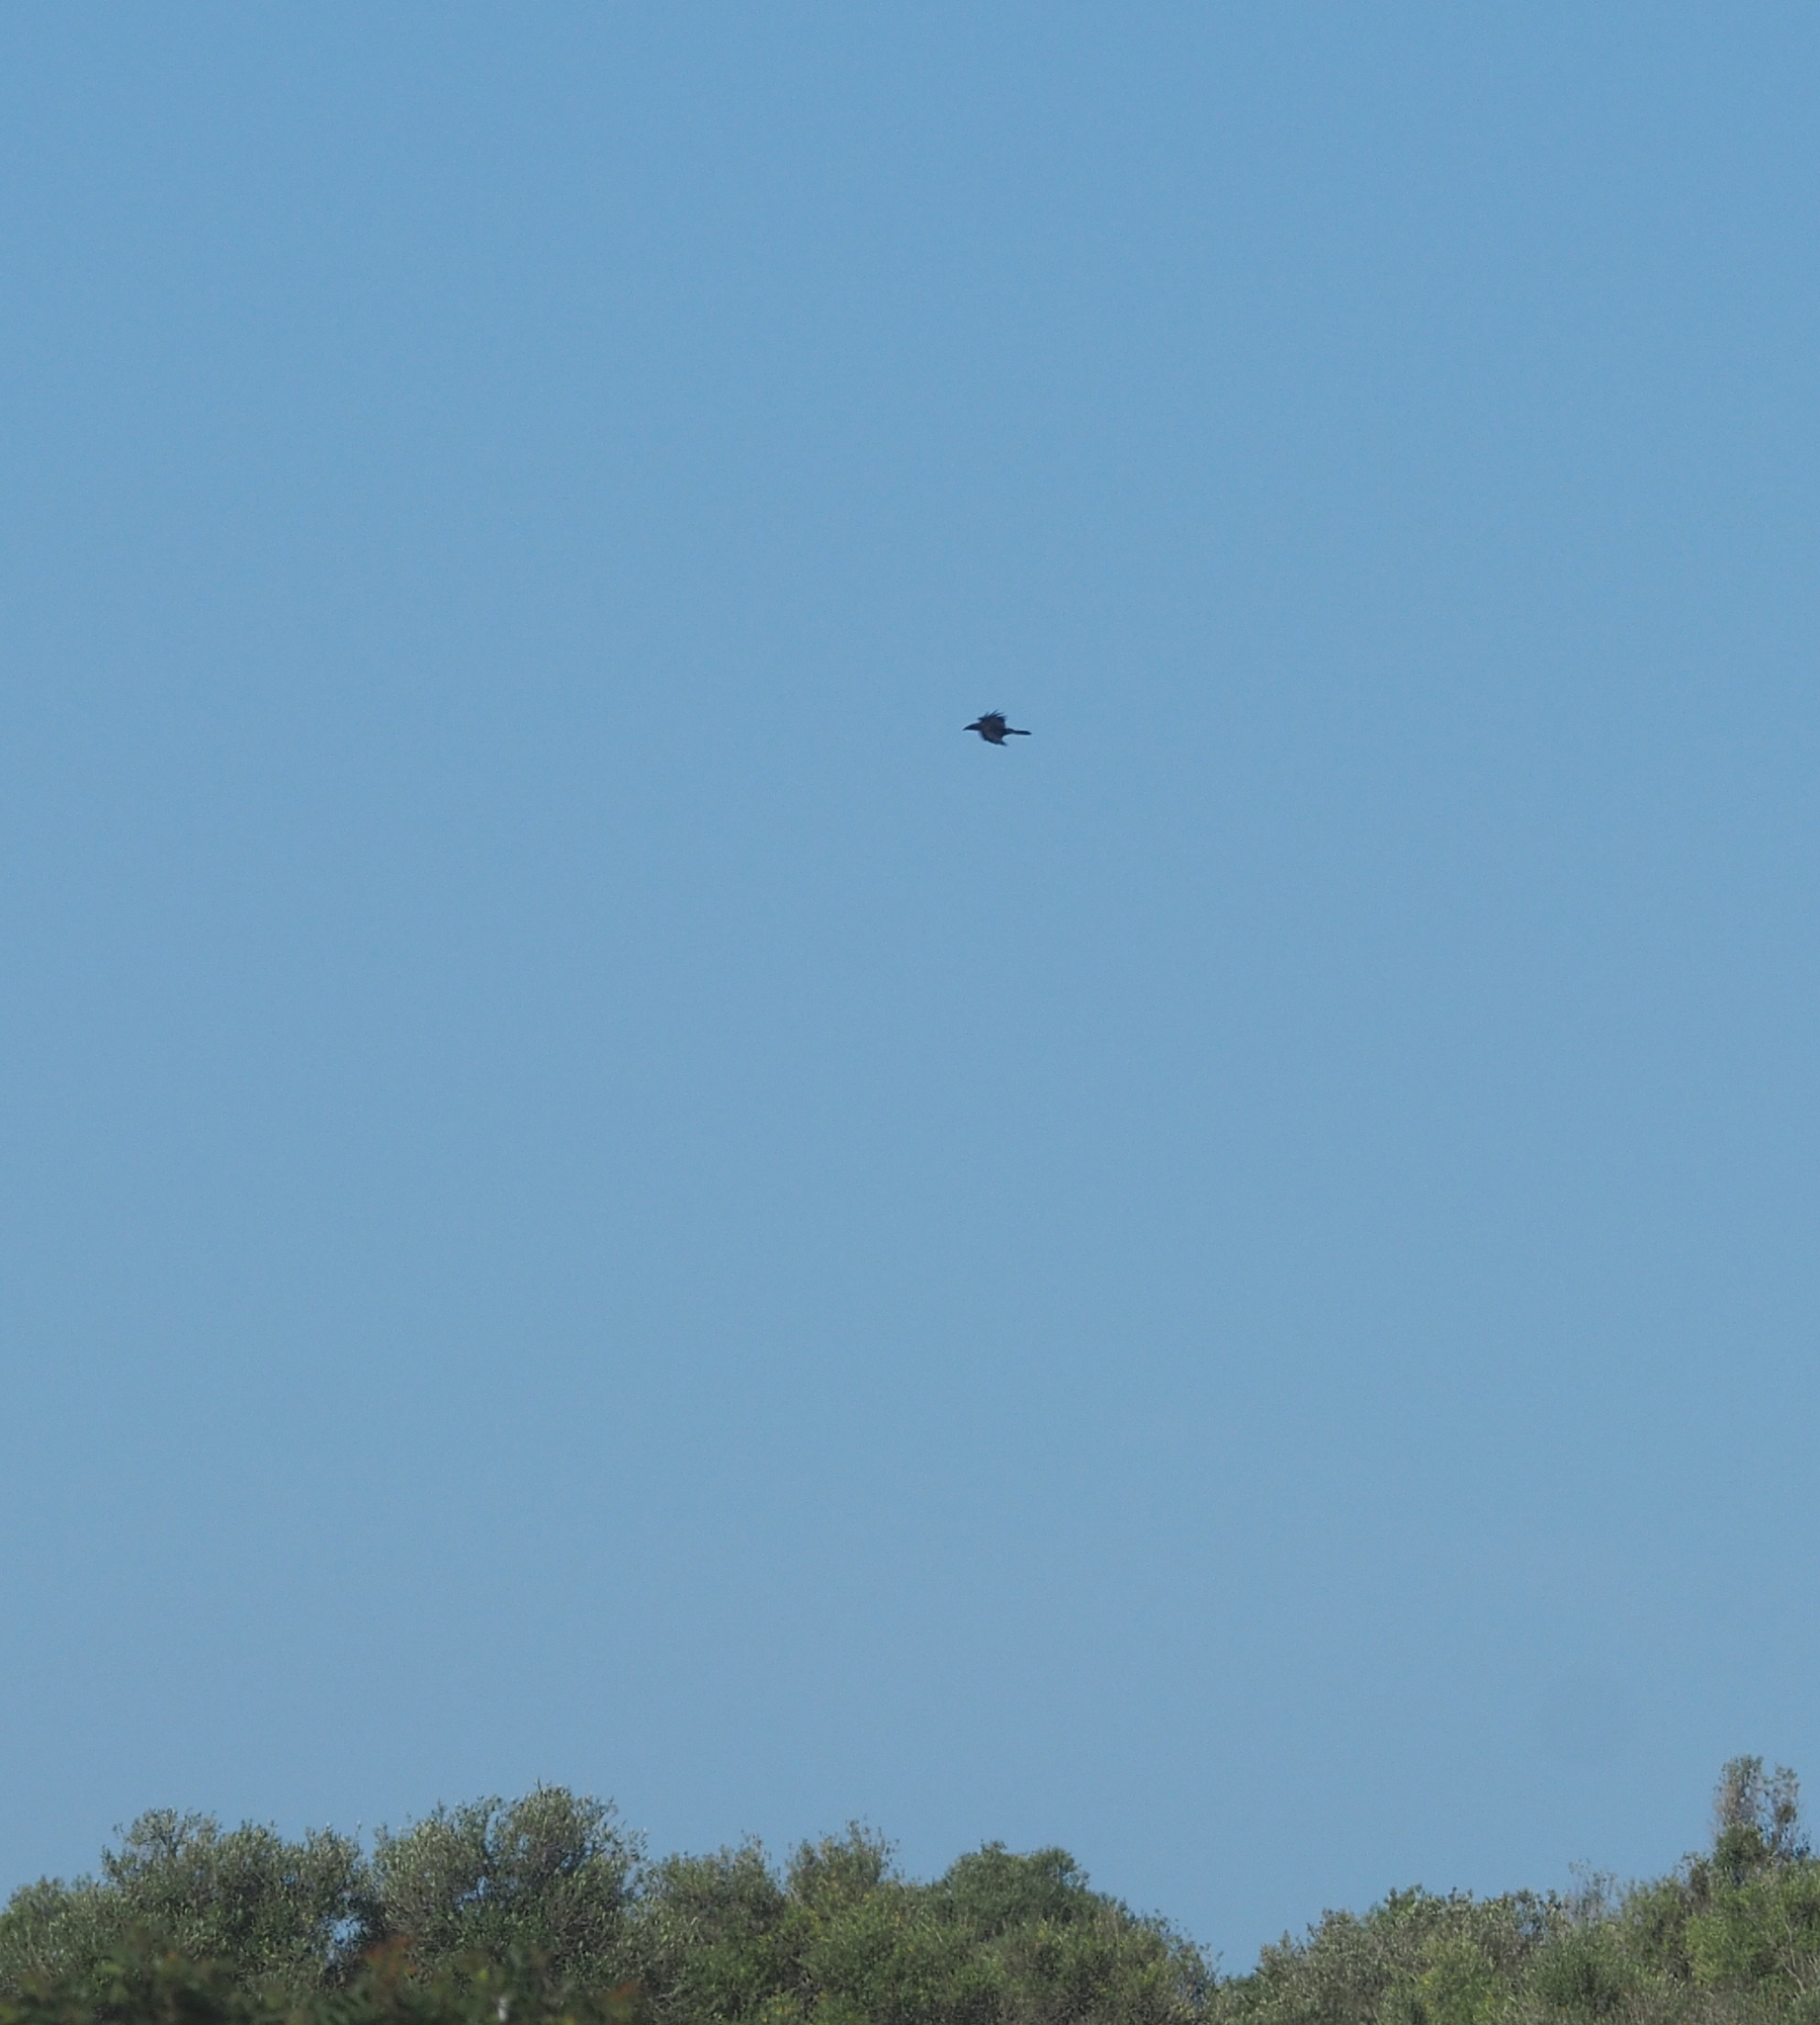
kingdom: Animalia
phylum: Chordata
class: Aves
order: Passeriformes
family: Corvidae
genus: Corvus
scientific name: Corvus corax
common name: Common raven
